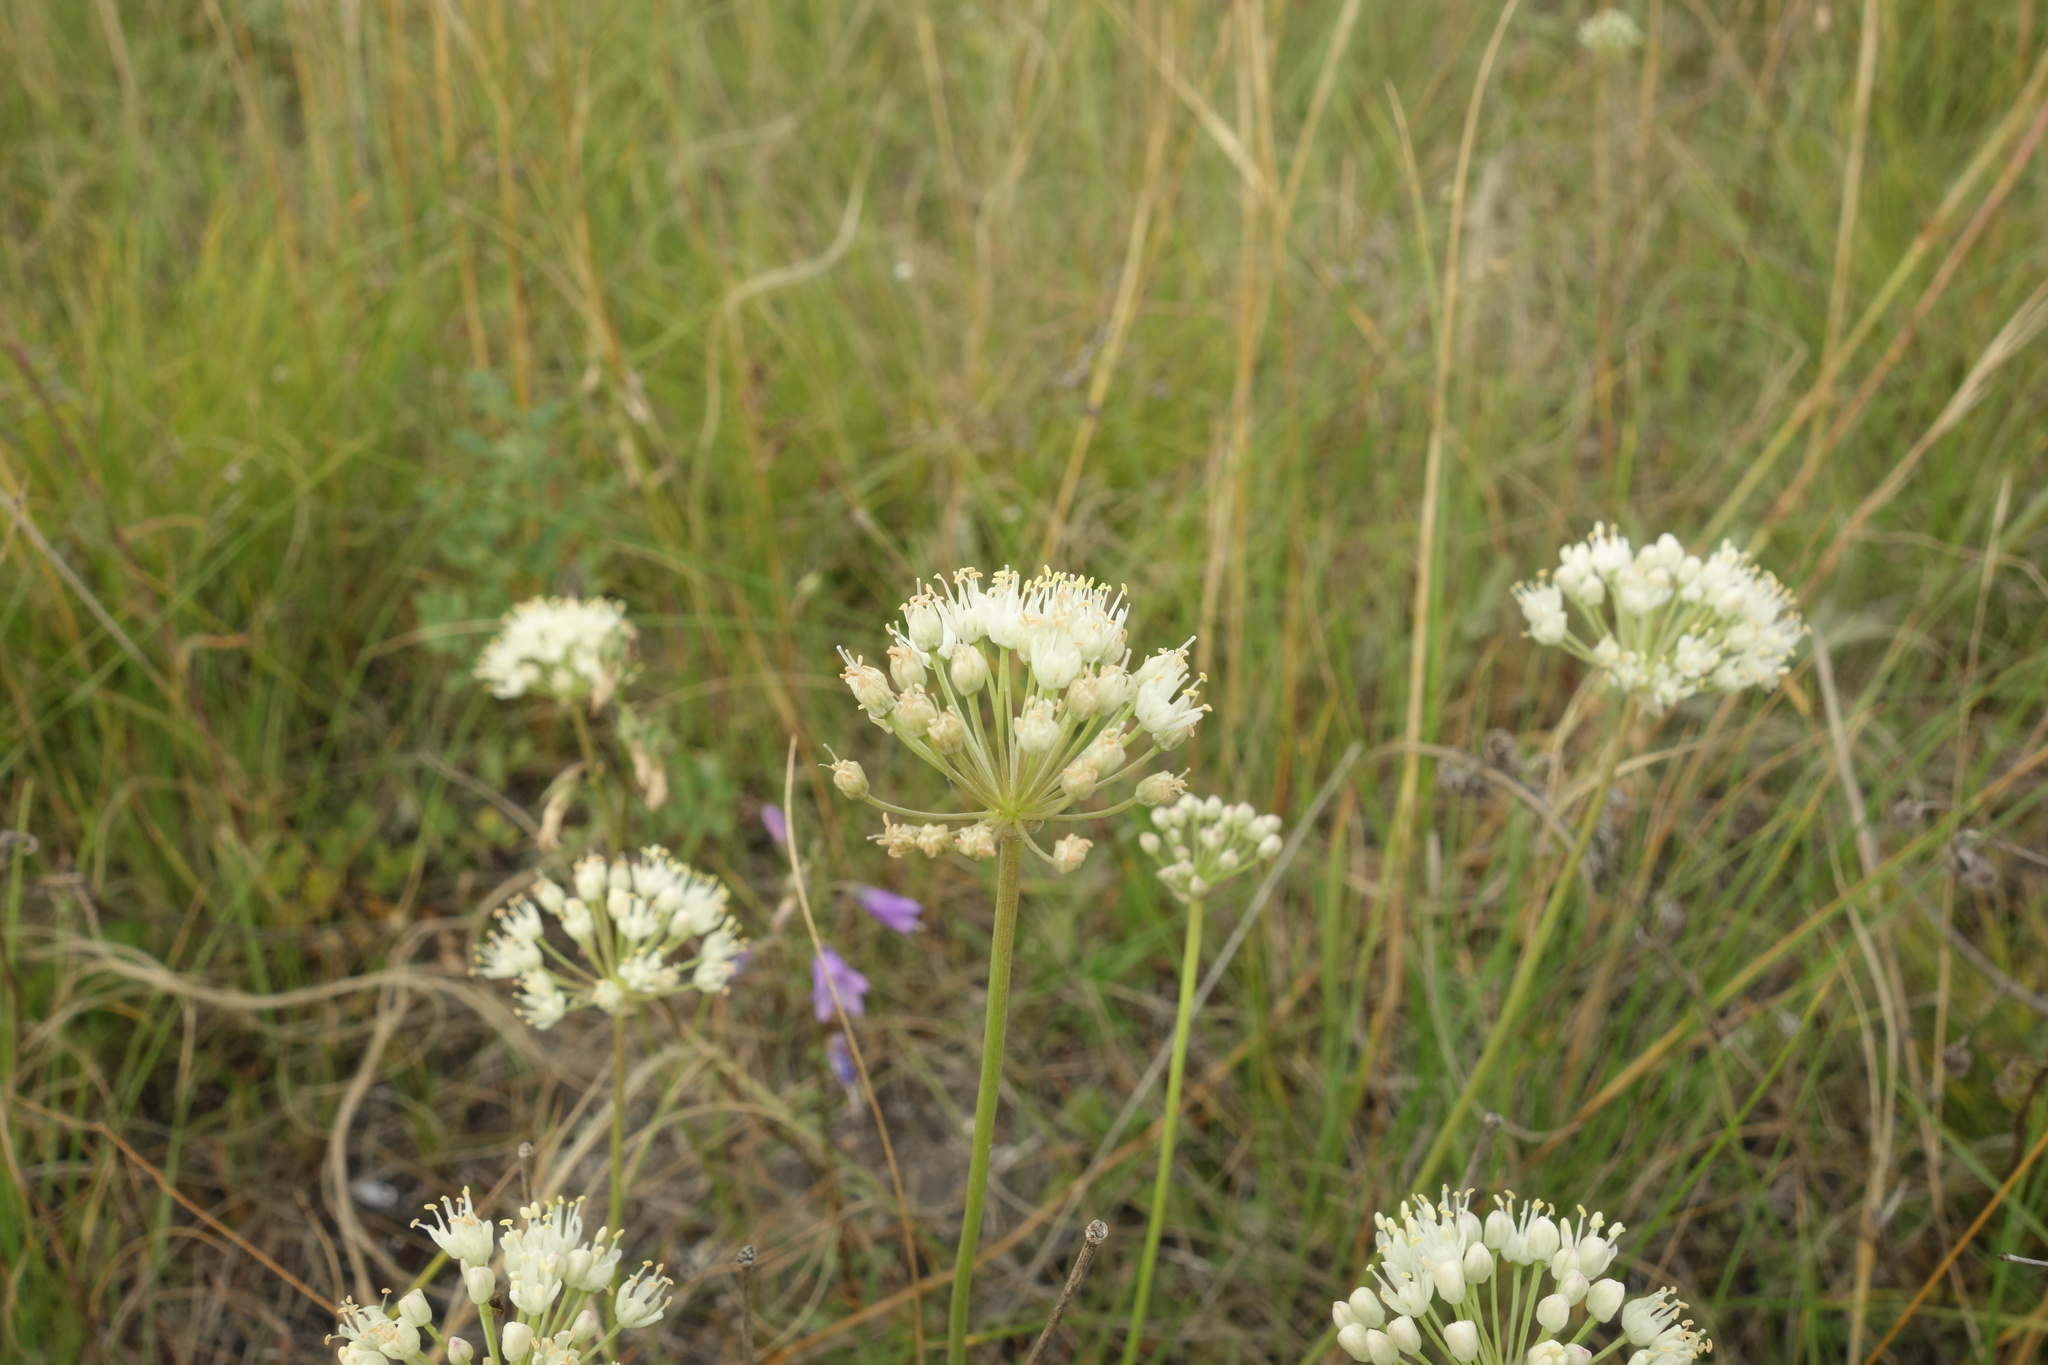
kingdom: Plantae
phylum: Tracheophyta
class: Liliopsida
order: Asparagales
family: Amaryllidaceae
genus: Allium
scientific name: Allium flavescens
